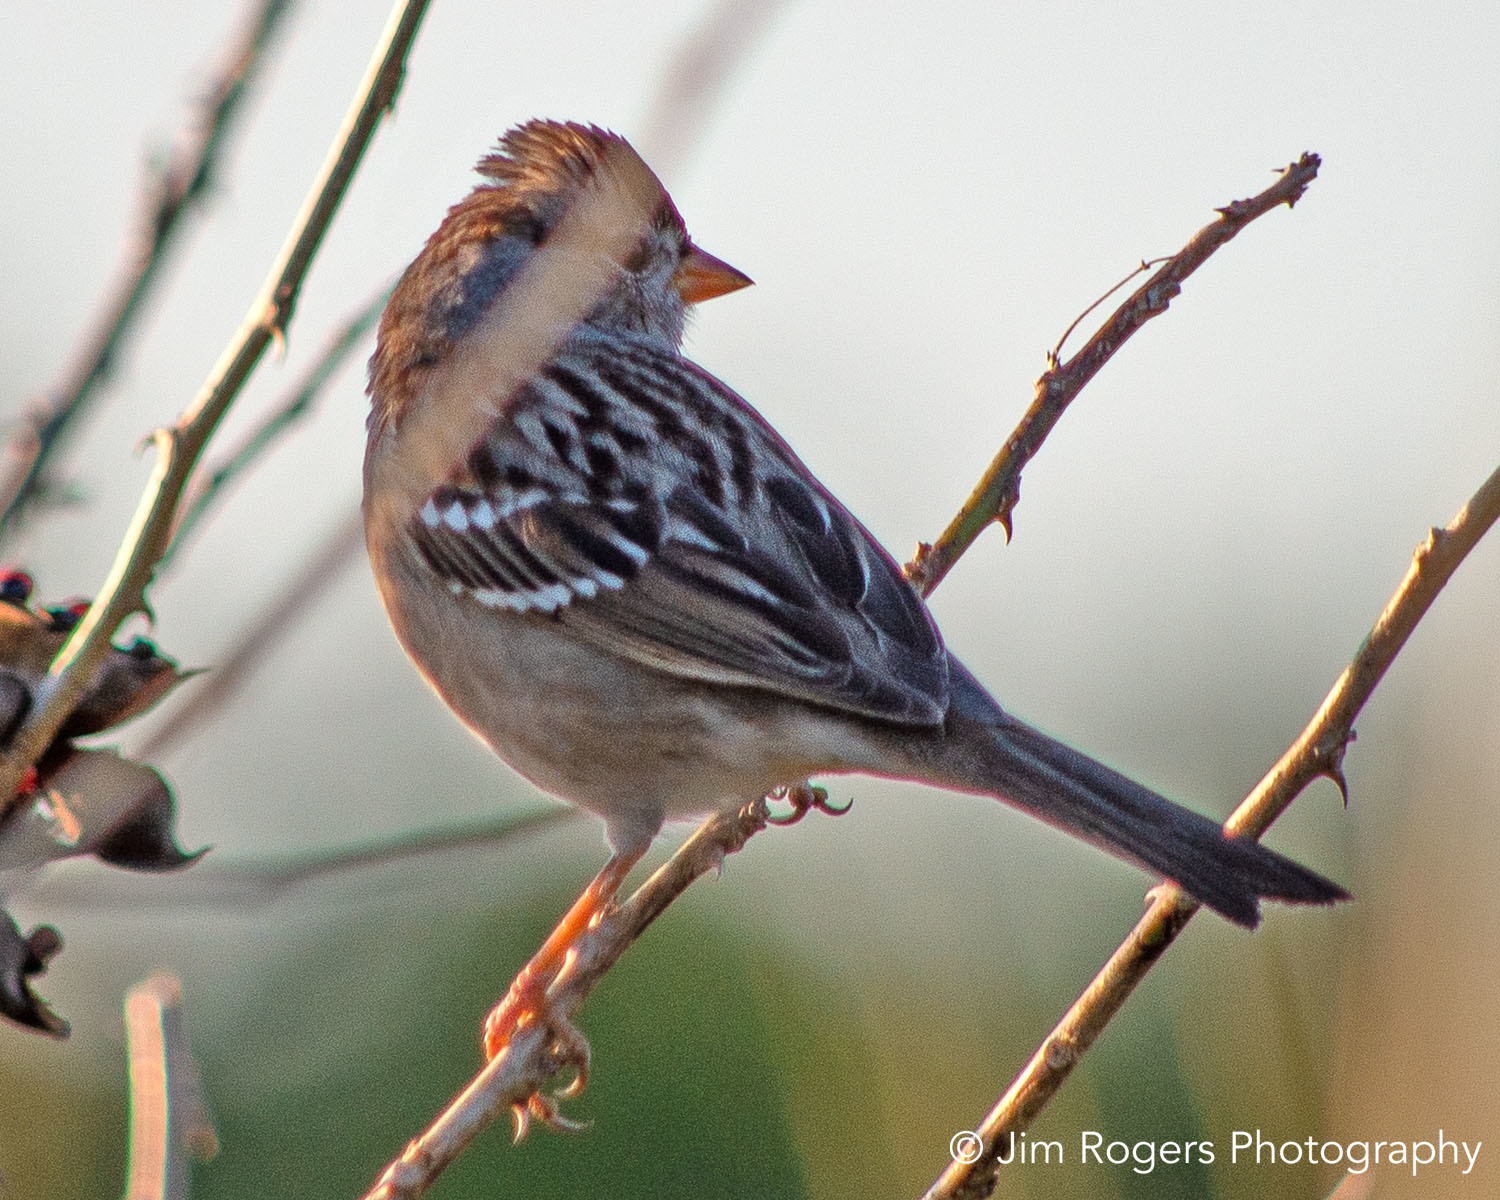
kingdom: Animalia
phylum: Chordata
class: Aves
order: Passeriformes
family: Passerellidae
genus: Zonotrichia
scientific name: Zonotrichia leucophrys
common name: White-crowned sparrow
